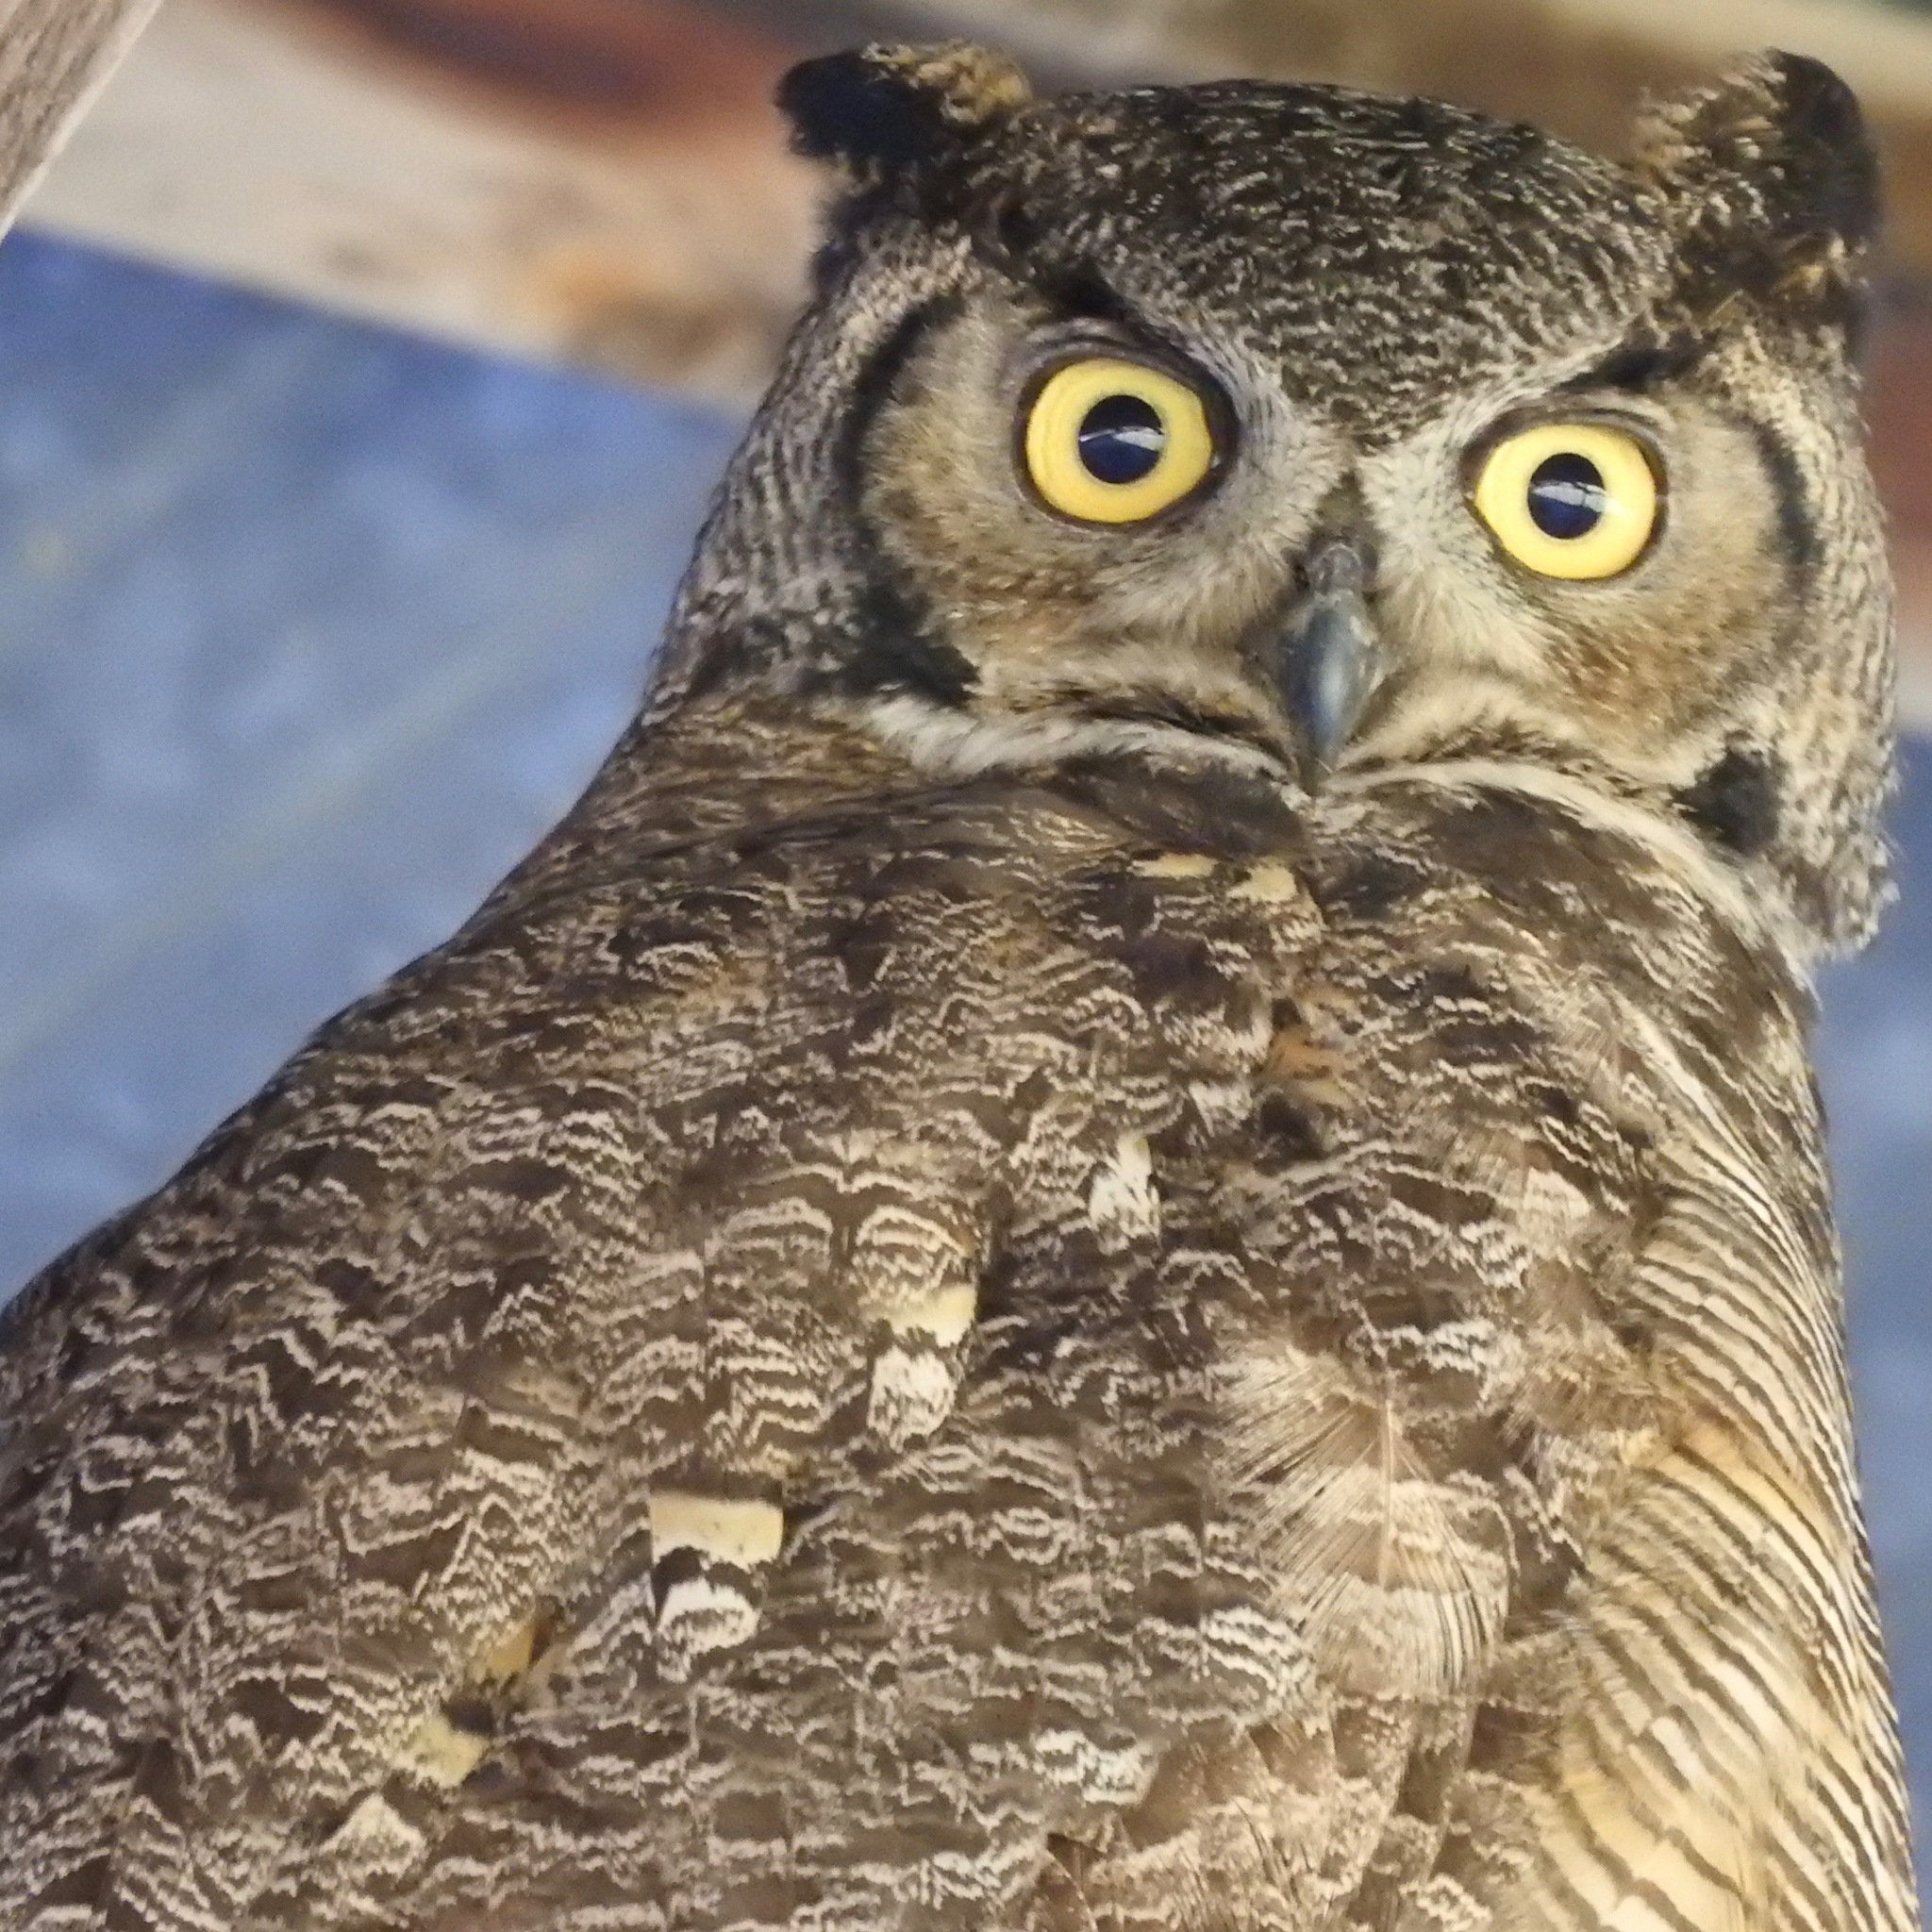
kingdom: Animalia
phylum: Chordata
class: Aves
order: Strigiformes
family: Strigidae
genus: Bubo
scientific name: Bubo virginianus
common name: Great horned owl
